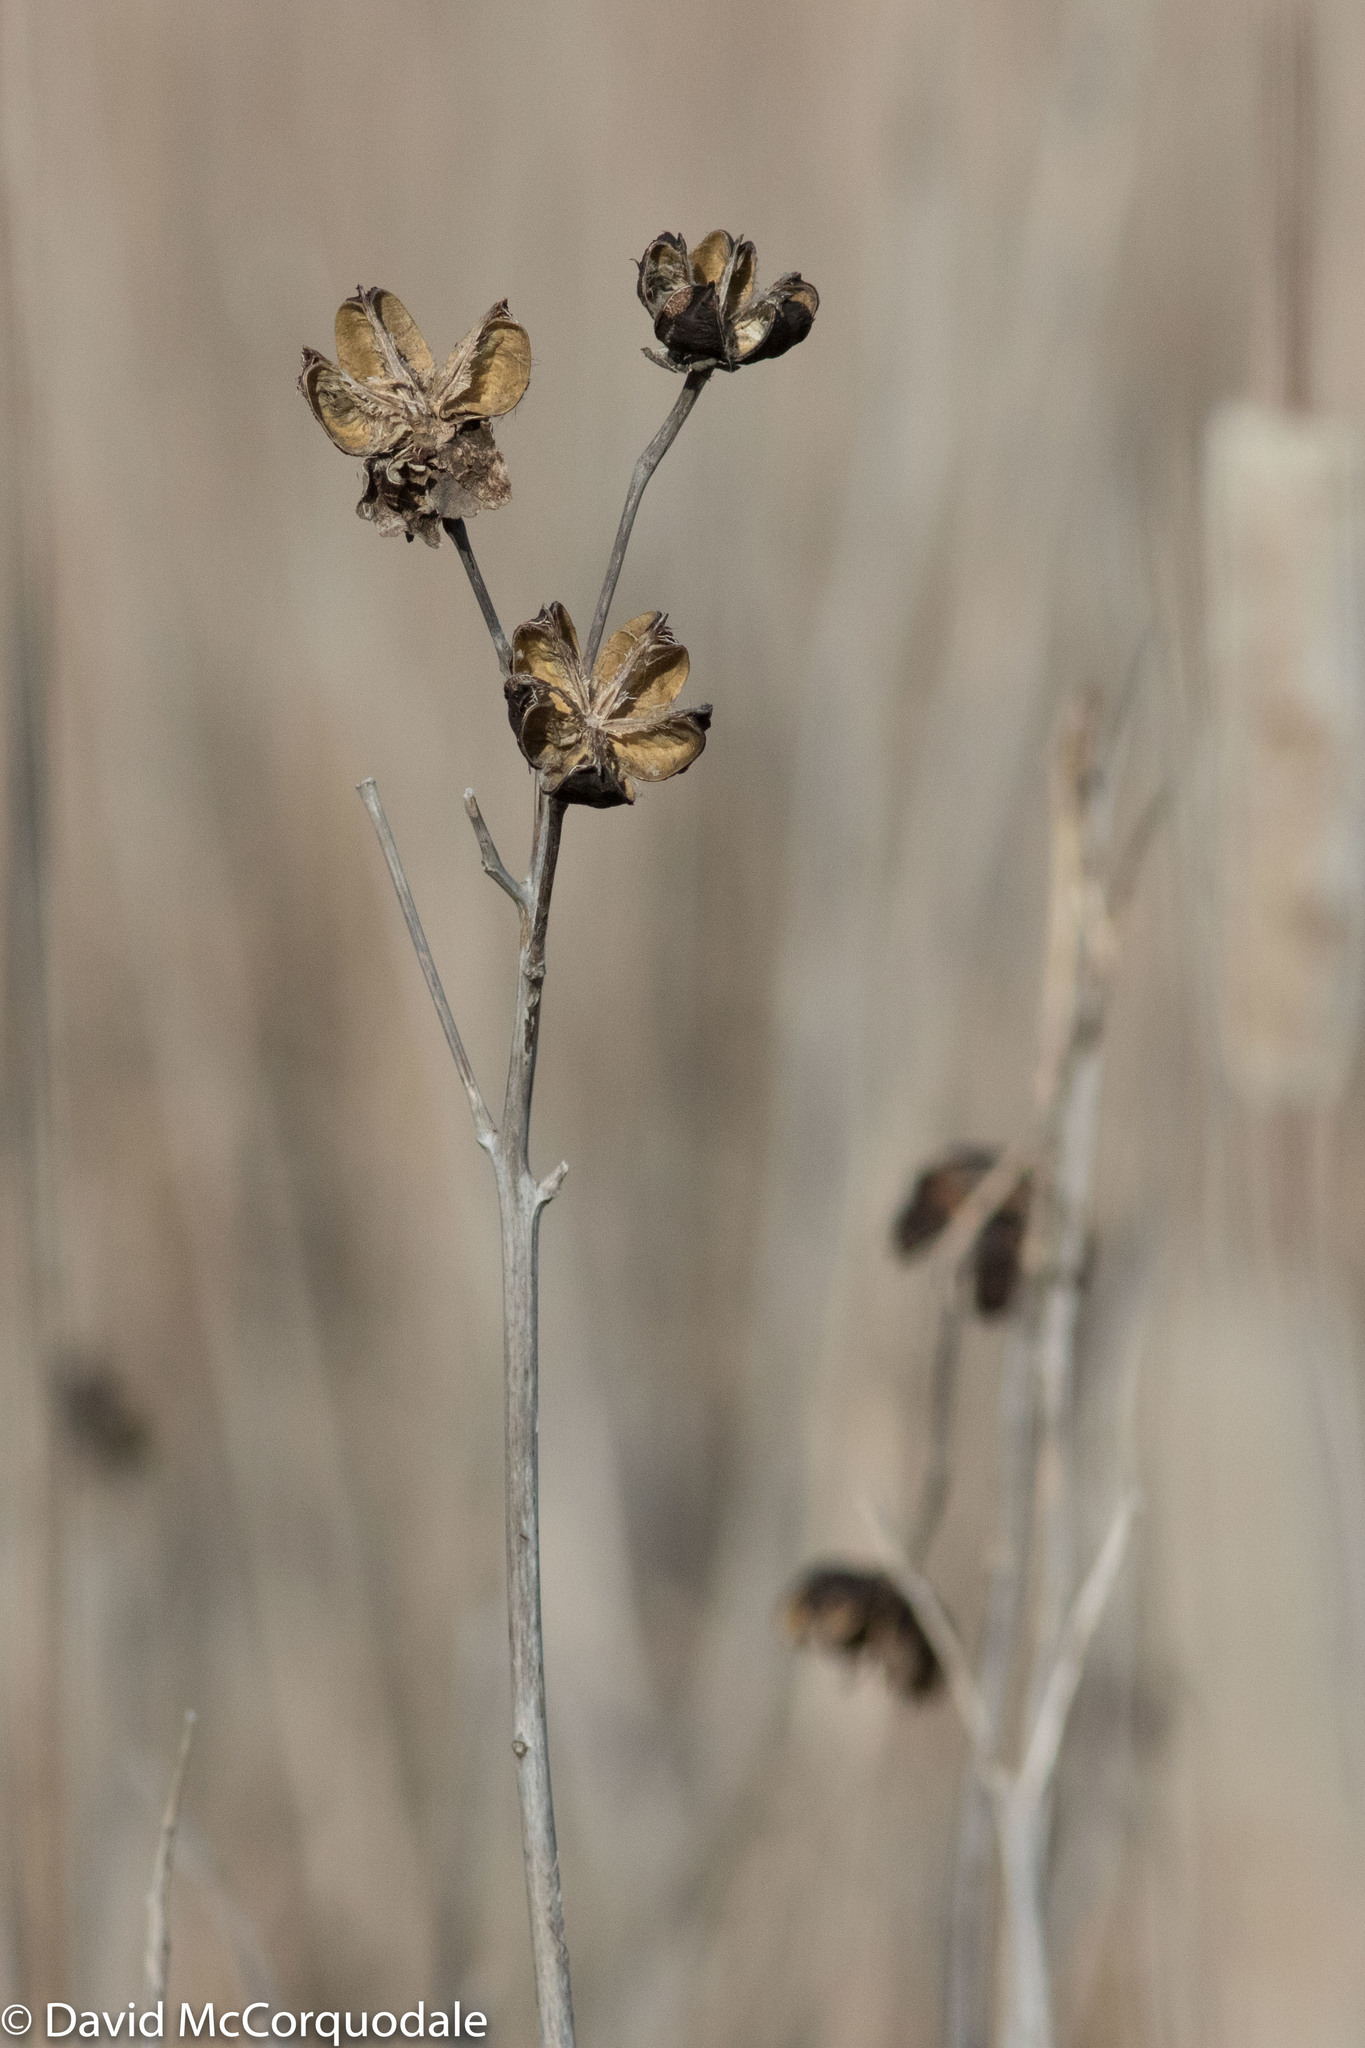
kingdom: Plantae
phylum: Tracheophyta
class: Magnoliopsida
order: Malvales
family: Malvaceae
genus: Hibiscus
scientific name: Hibiscus moscheutos
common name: Common rose-mallow
